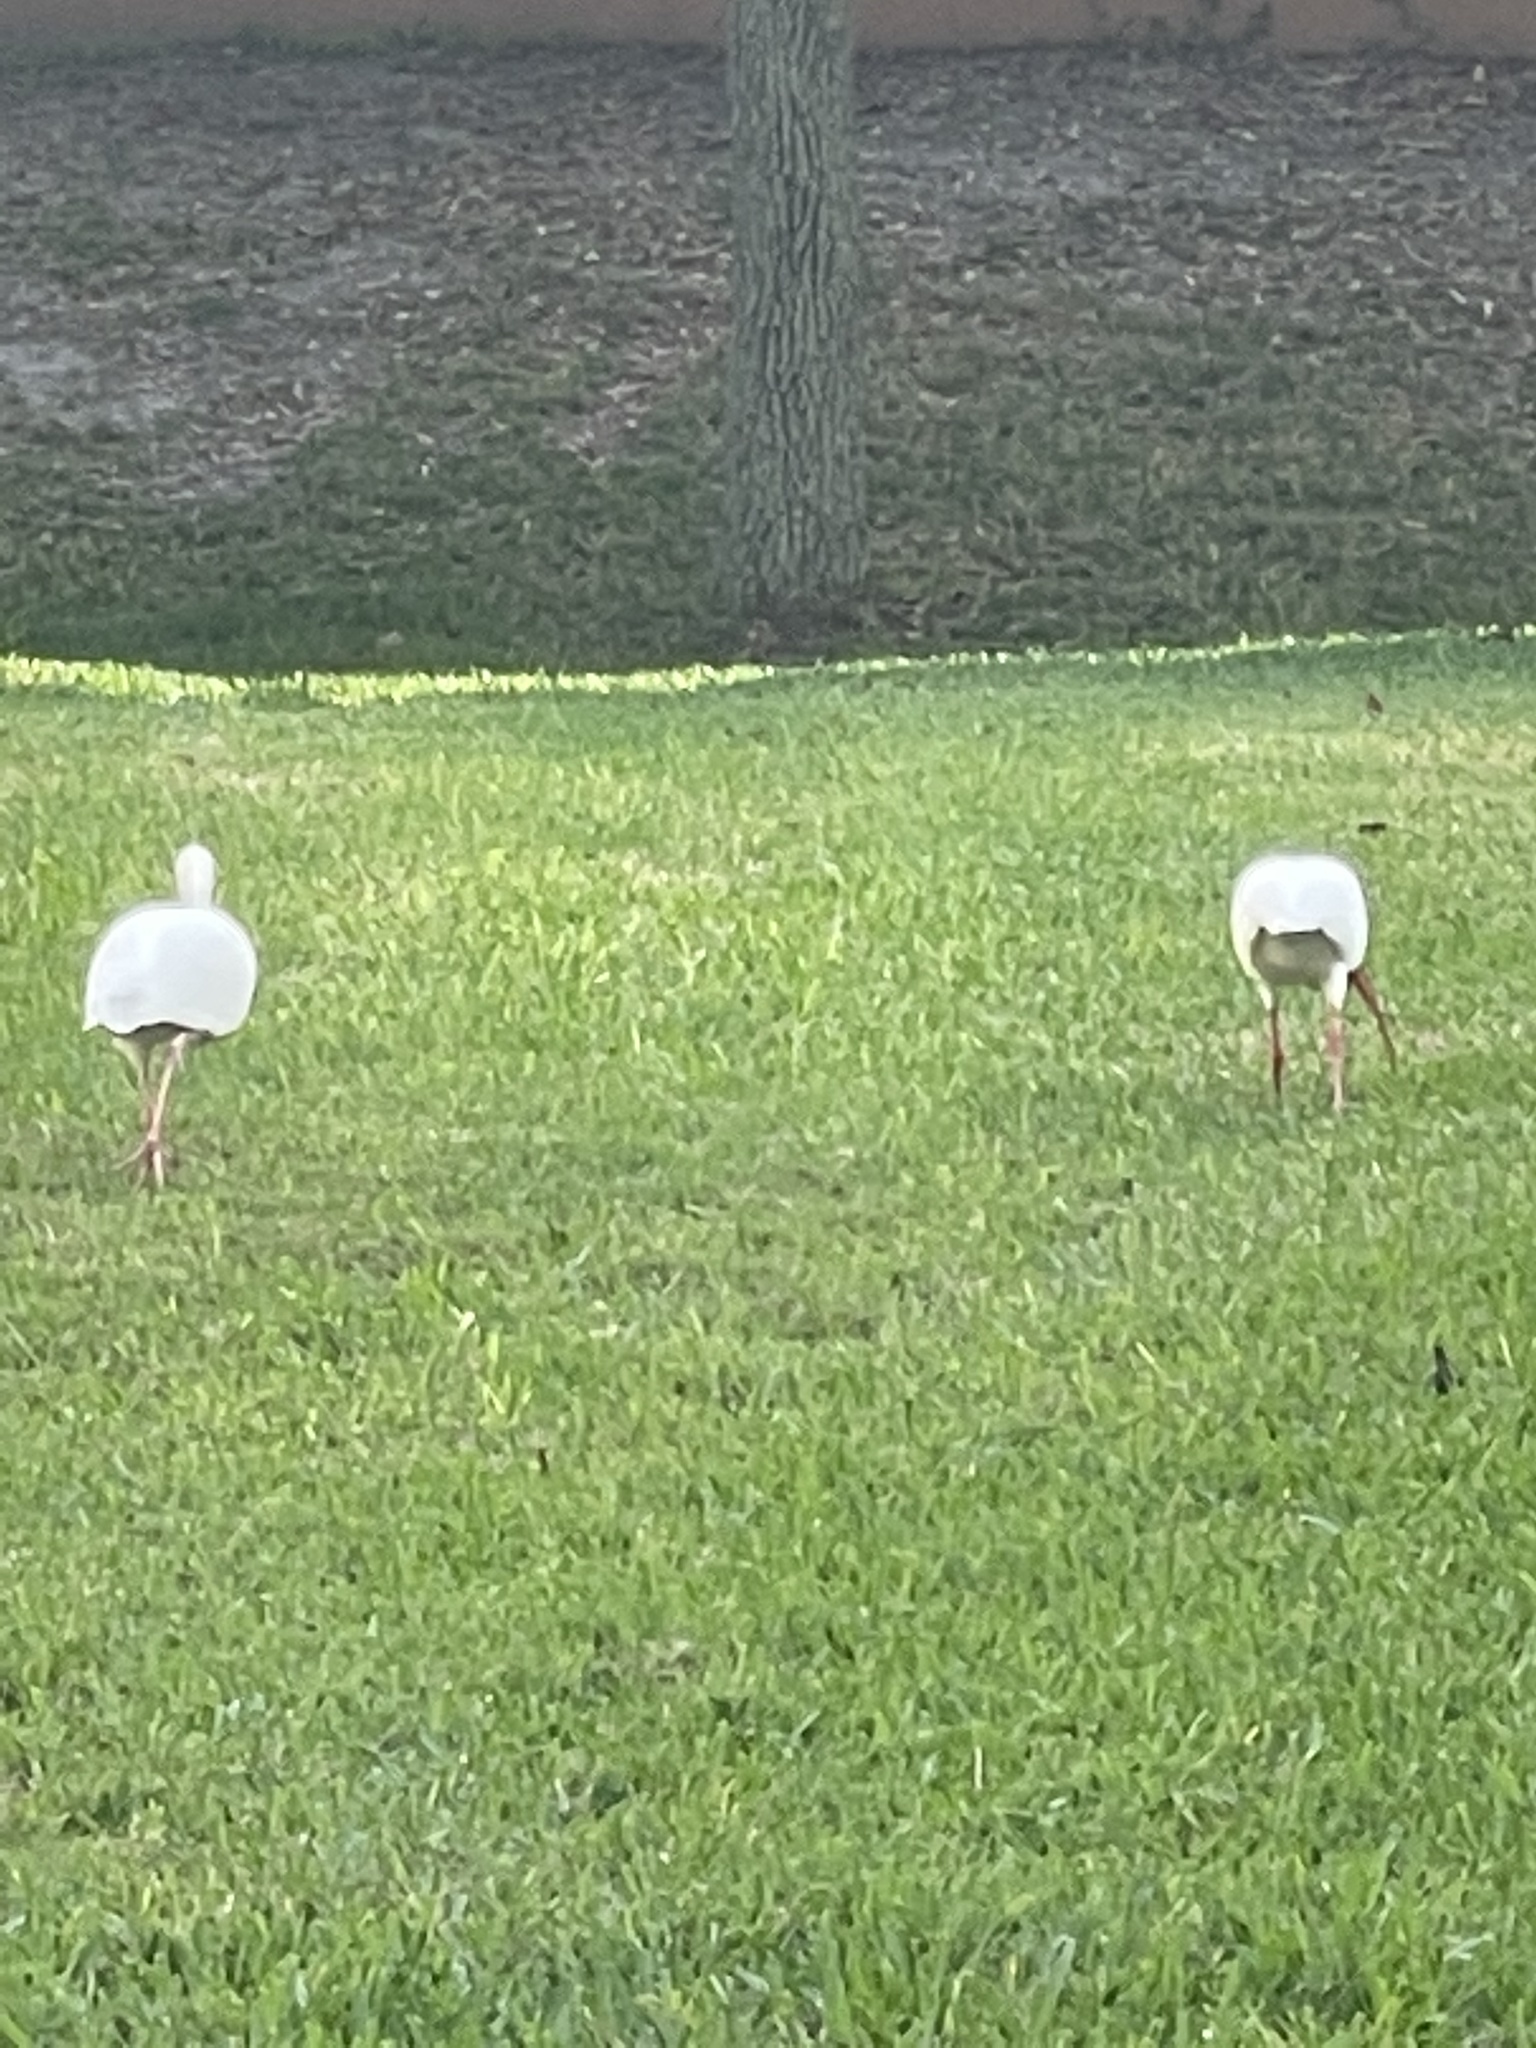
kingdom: Animalia
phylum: Chordata
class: Aves
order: Pelecaniformes
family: Threskiornithidae
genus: Eudocimus
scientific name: Eudocimus albus
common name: White ibis
